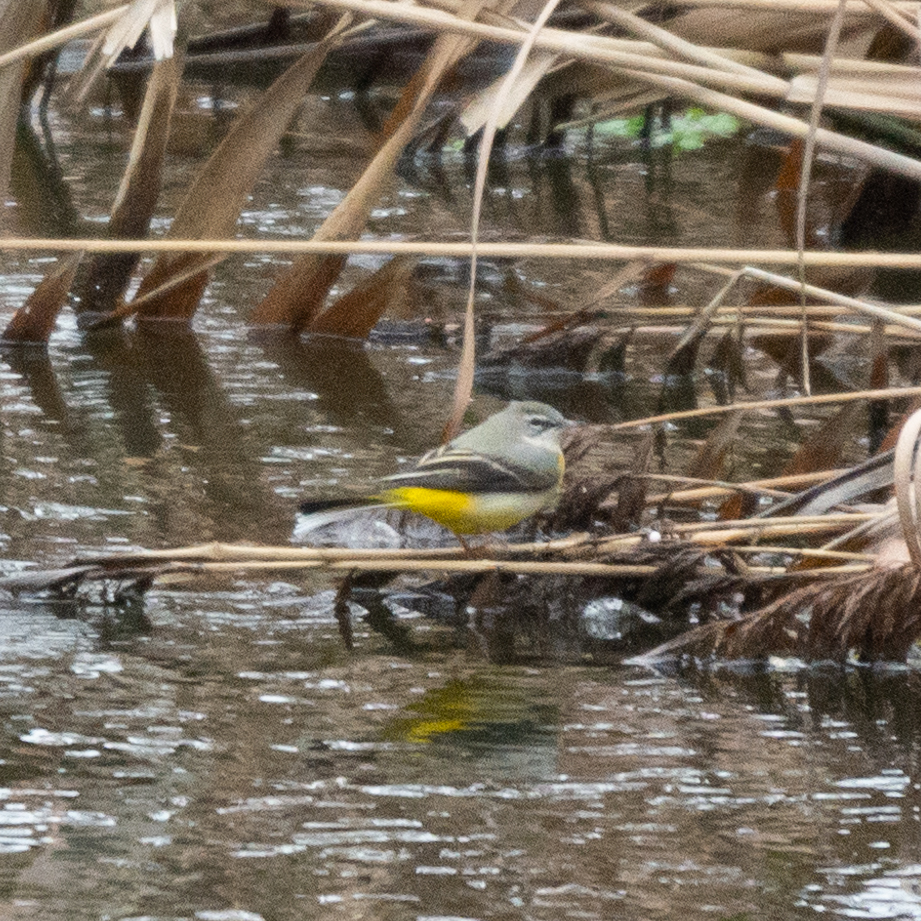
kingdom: Animalia
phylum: Chordata
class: Aves
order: Passeriformes
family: Motacillidae
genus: Motacilla
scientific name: Motacilla cinerea
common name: Grey wagtail
